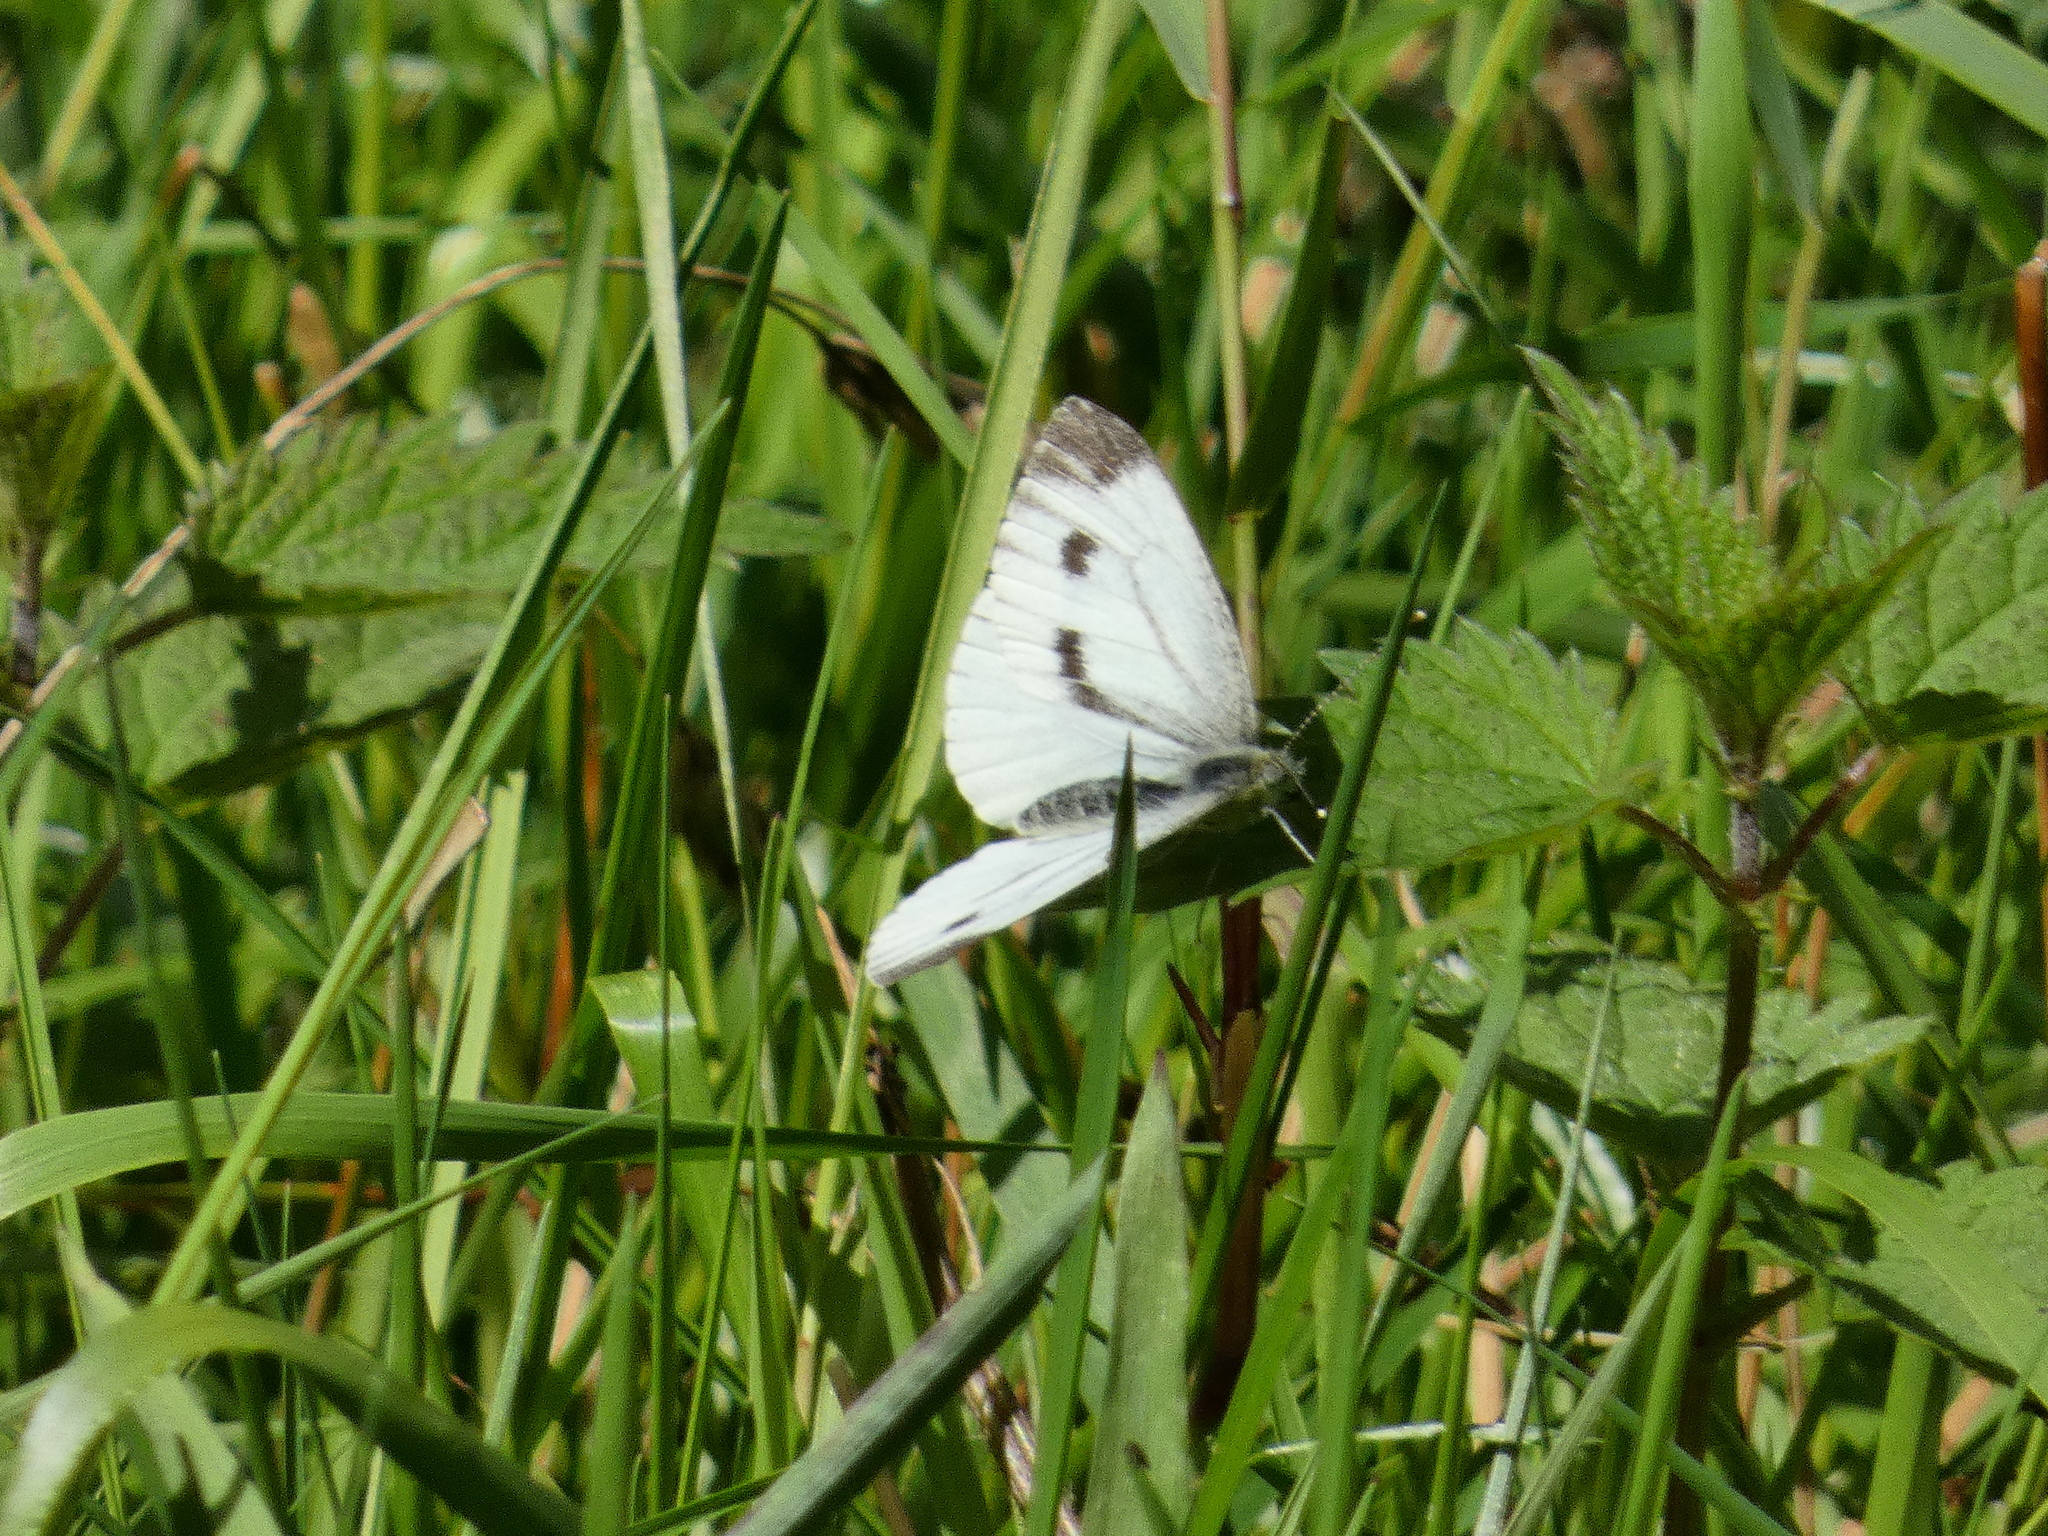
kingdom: Animalia
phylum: Arthropoda
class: Insecta
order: Lepidoptera
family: Pieridae
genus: Pieris
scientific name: Pieris napi
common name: Green-veined white
